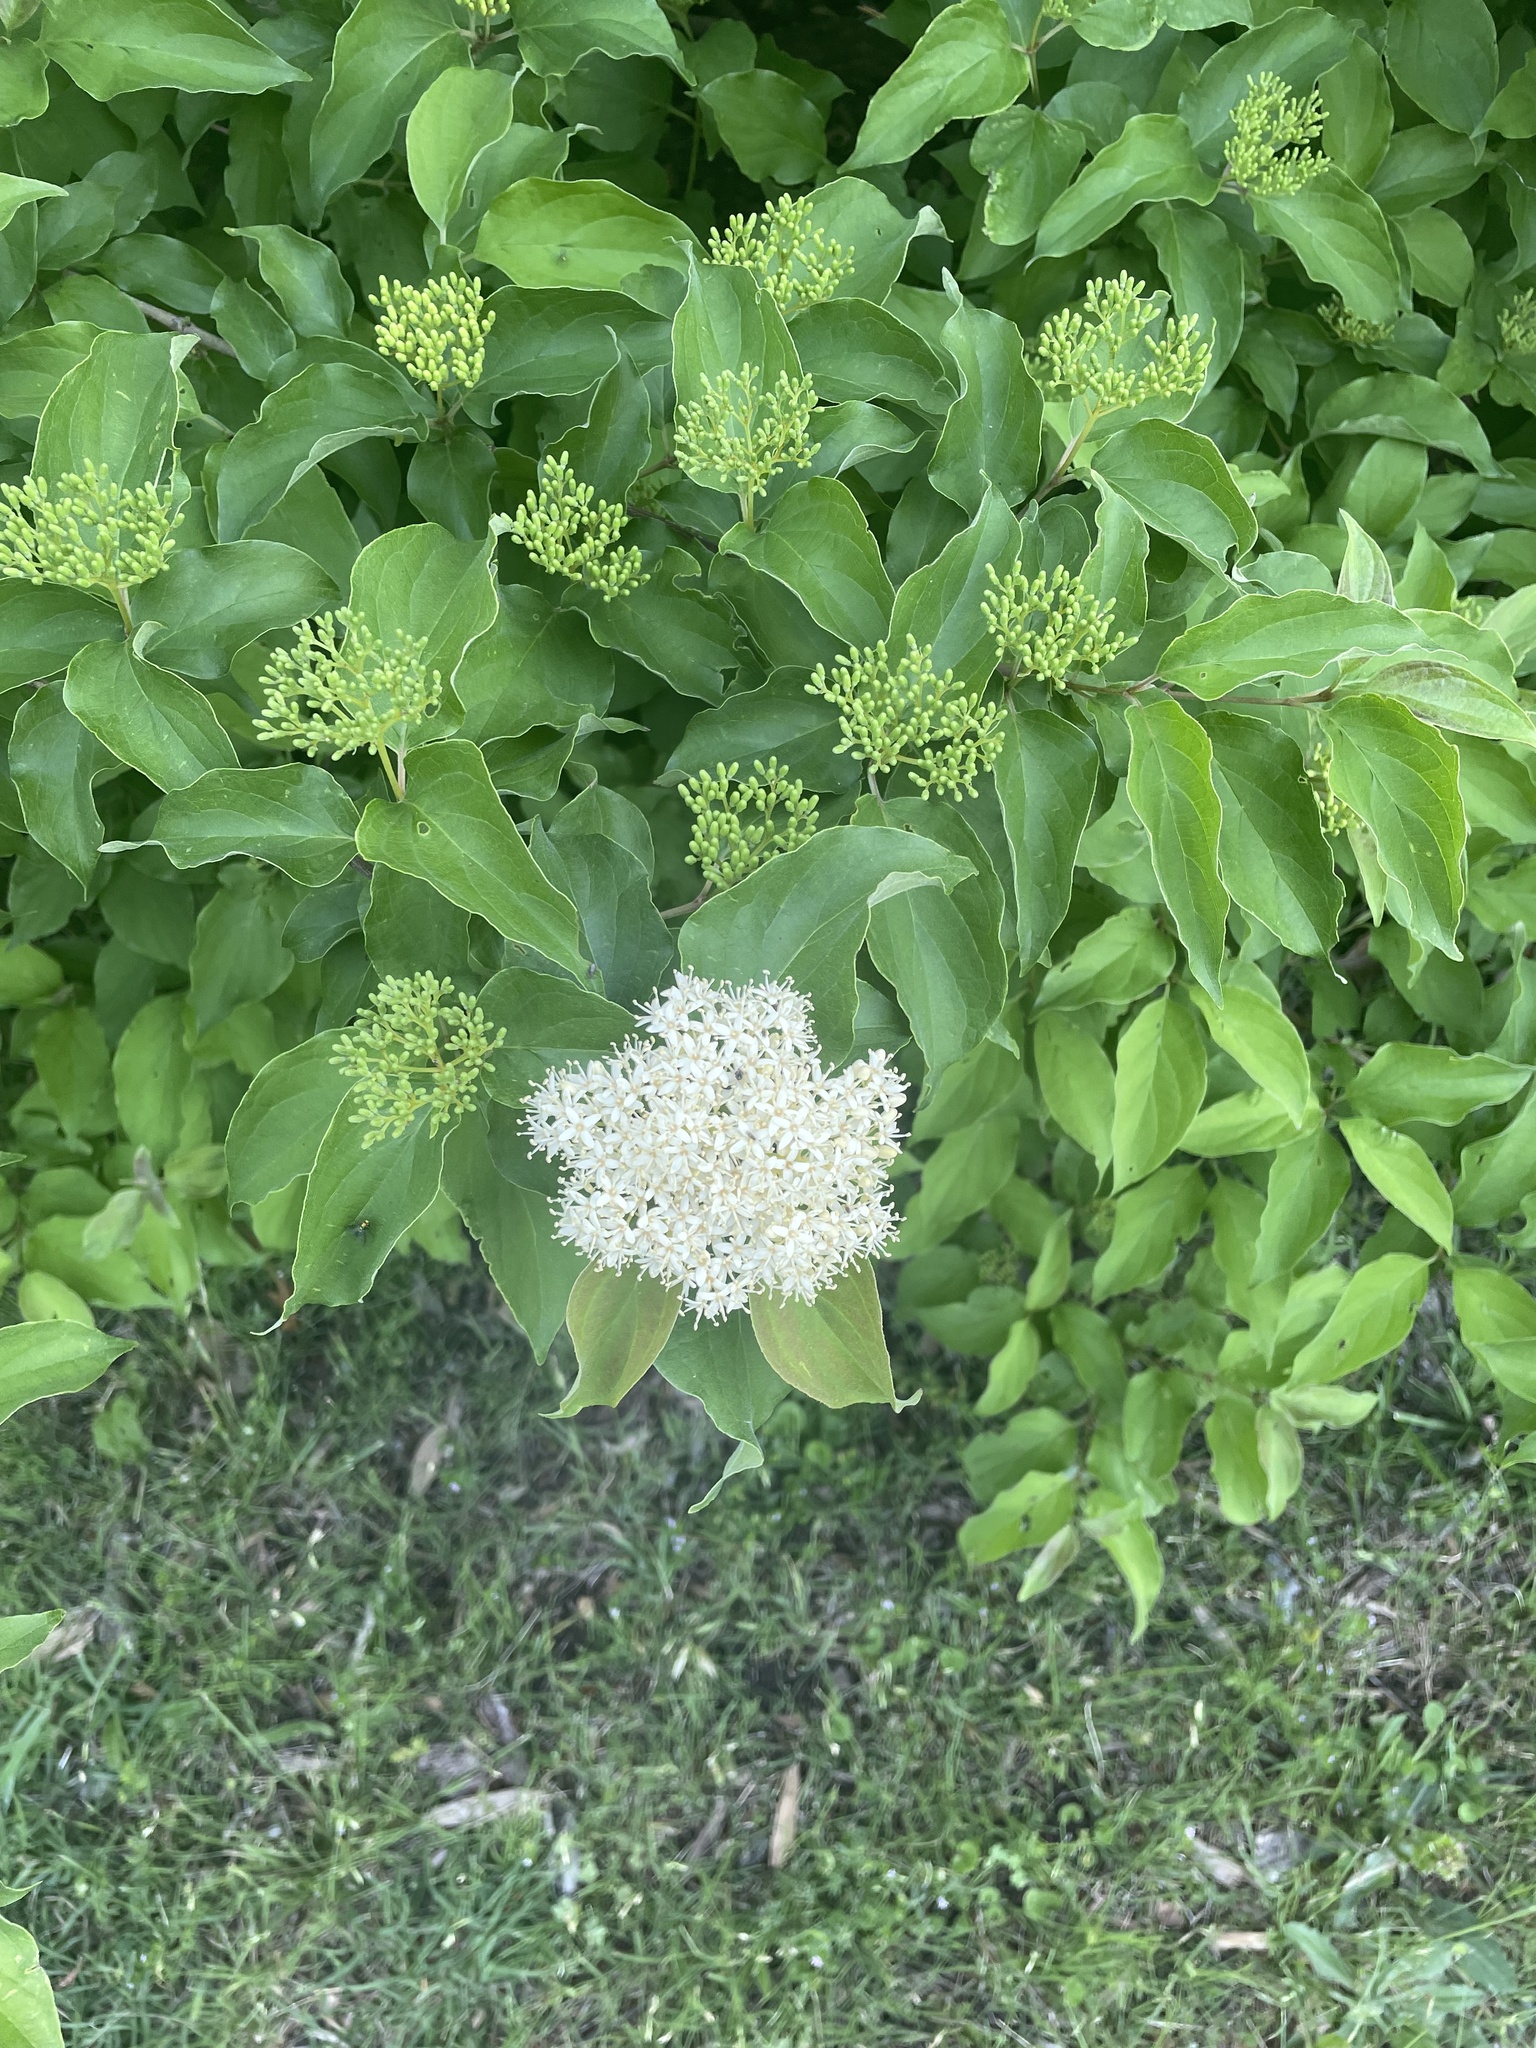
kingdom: Plantae
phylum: Tracheophyta
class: Magnoliopsida
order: Cornales
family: Cornaceae
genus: Cornus
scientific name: Cornus drummondii
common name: Rough-leaf dogwood
